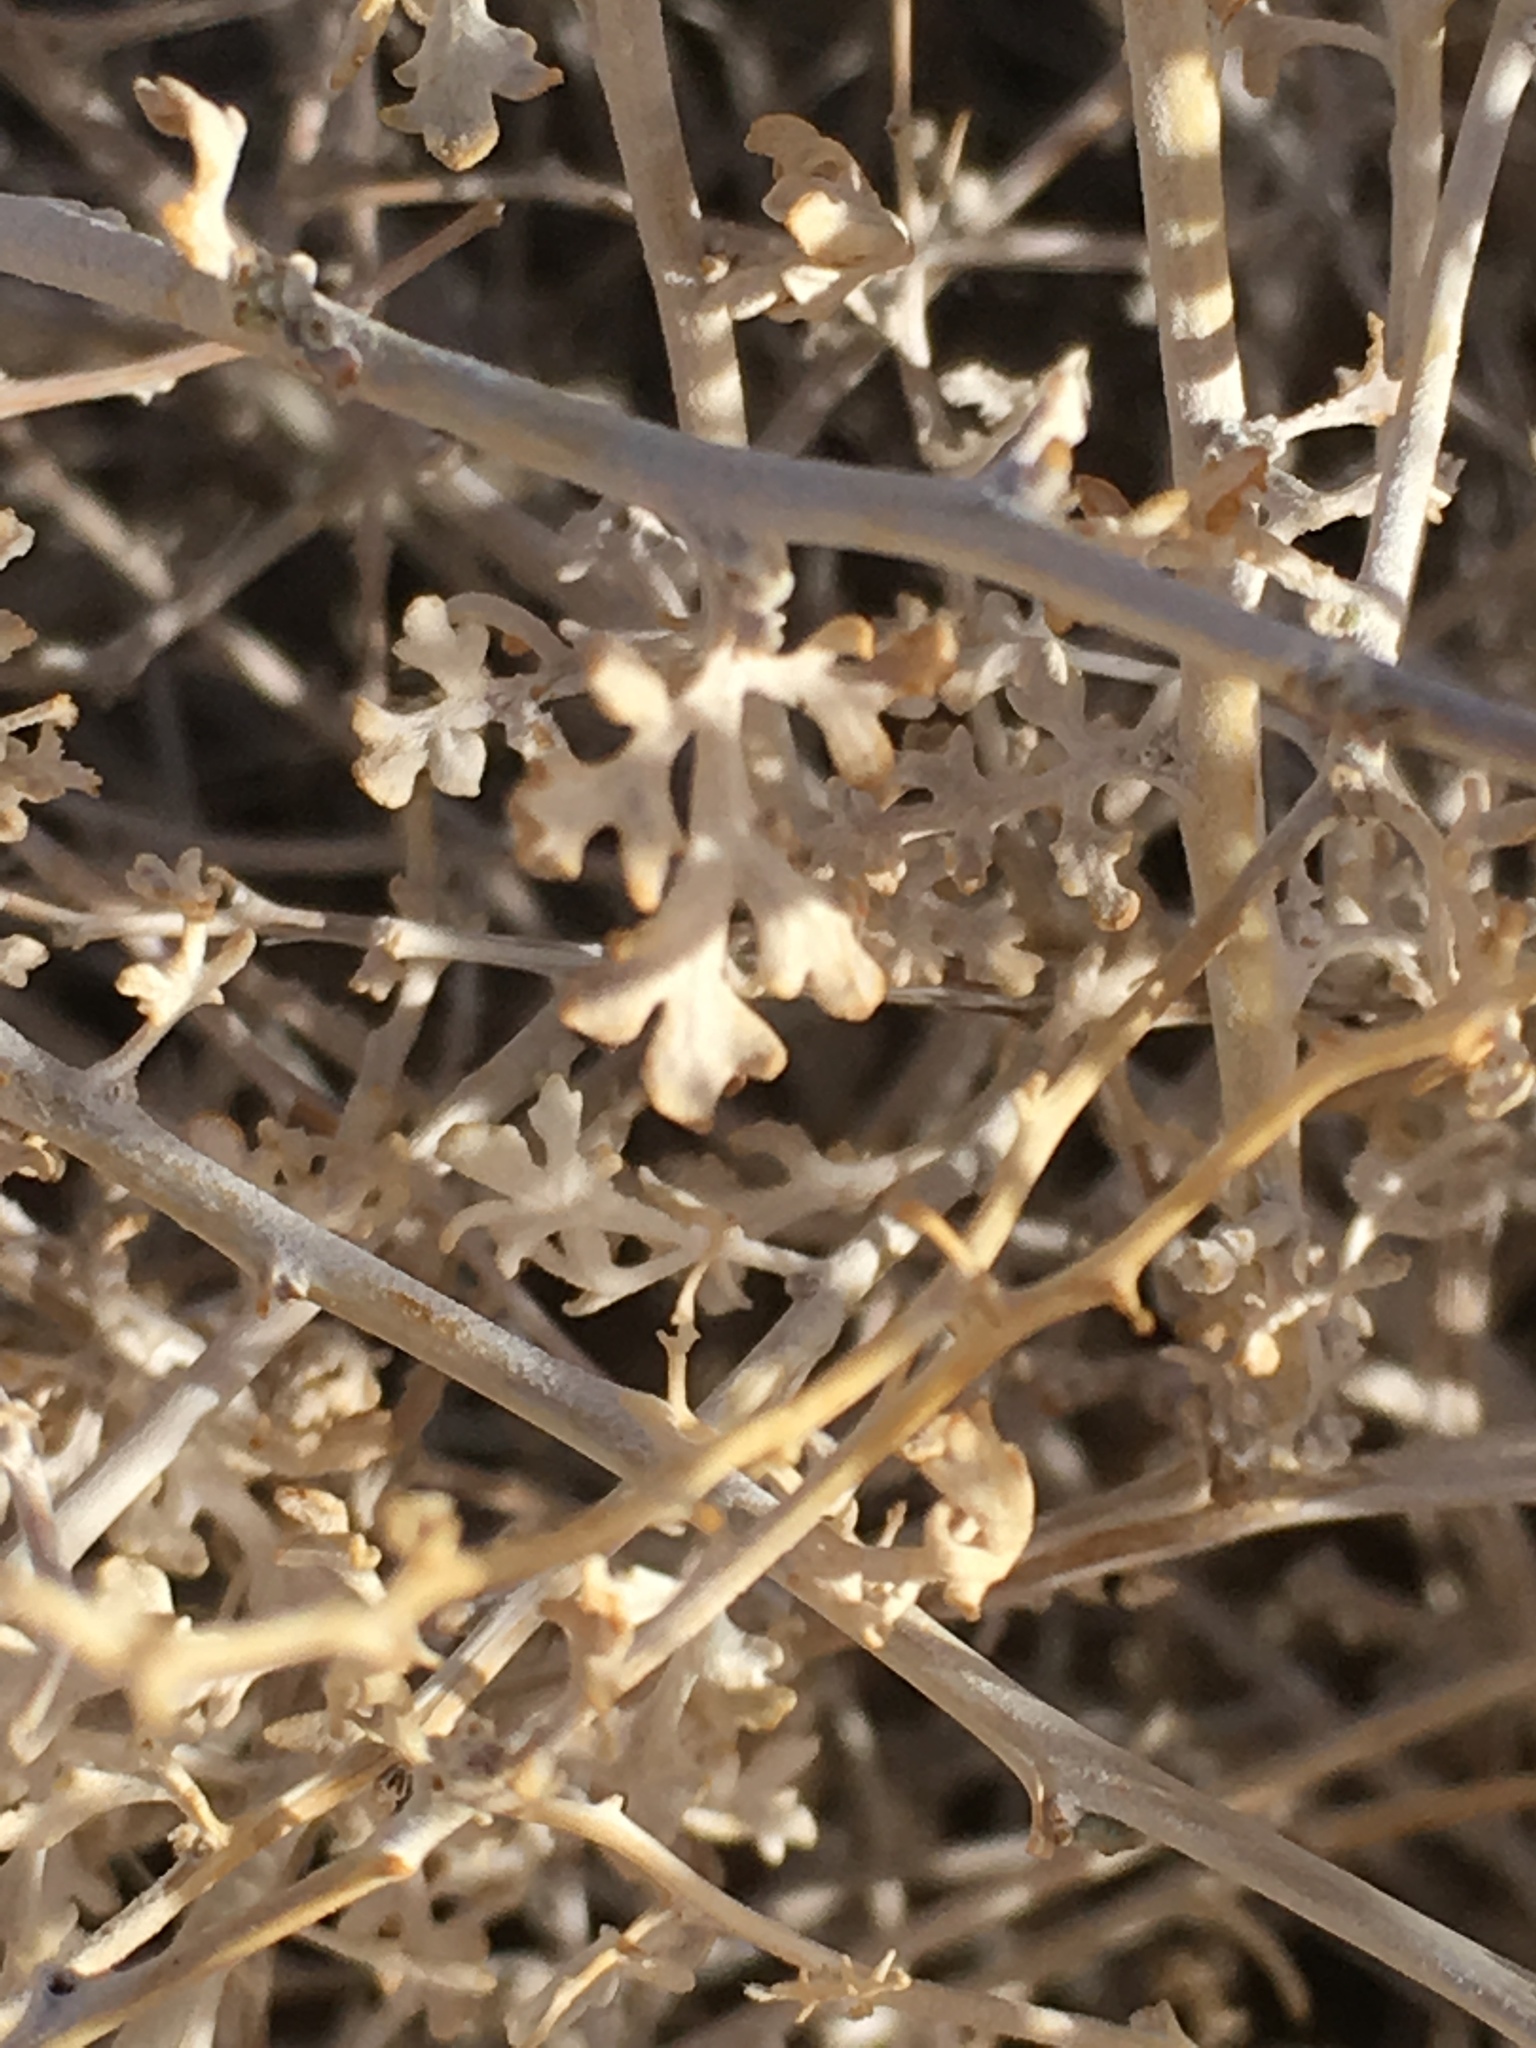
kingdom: Plantae
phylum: Tracheophyta
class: Magnoliopsida
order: Asterales
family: Asteraceae
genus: Ambrosia
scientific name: Ambrosia dumosa
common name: Bur-sage
